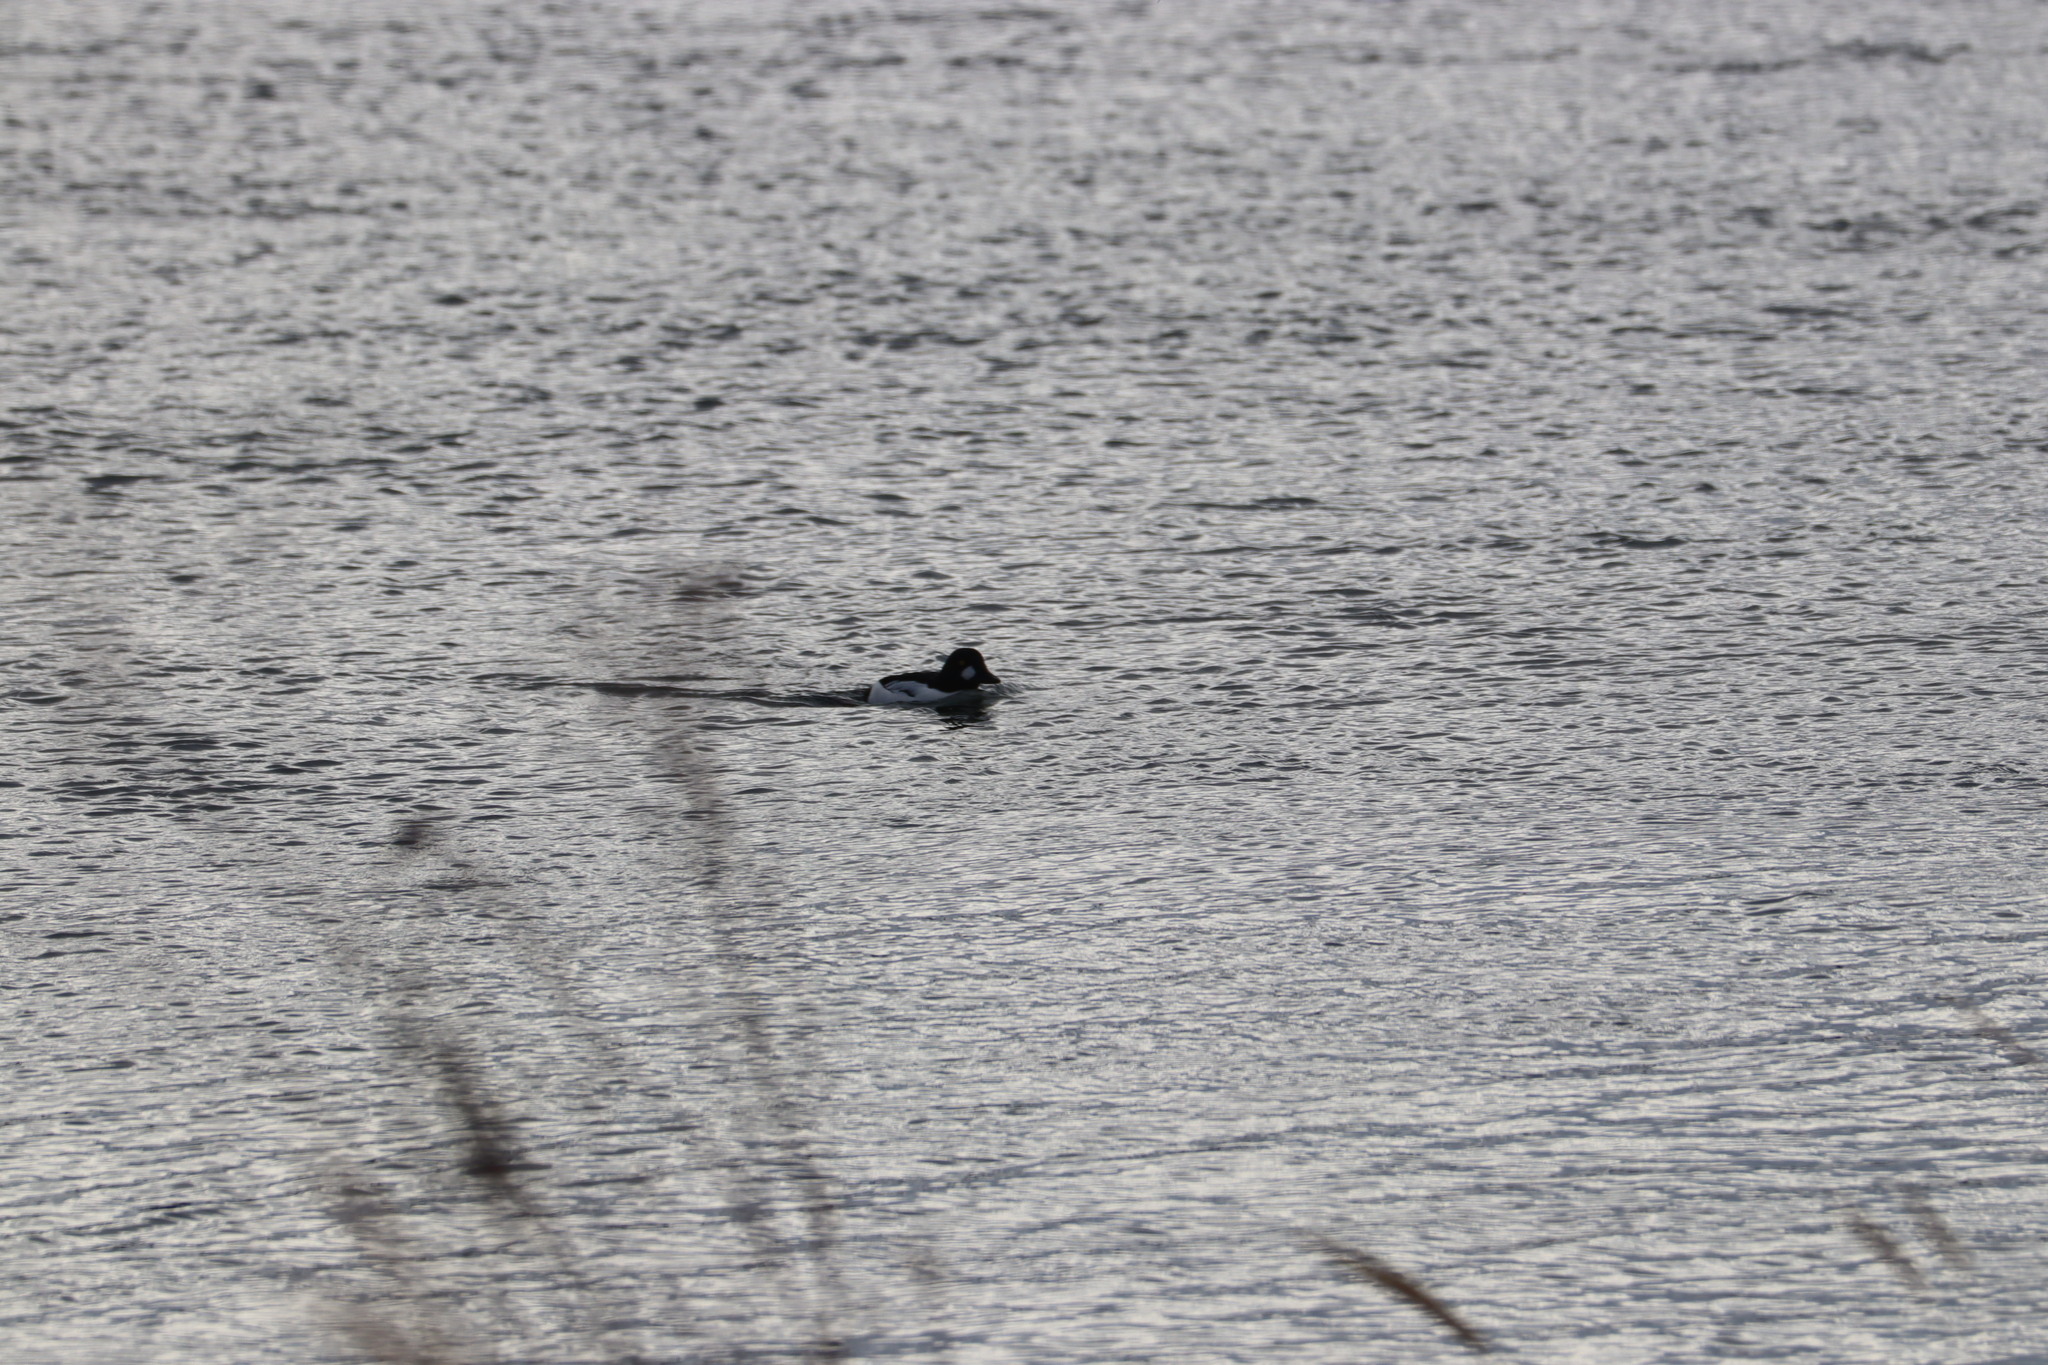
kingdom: Animalia
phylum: Chordata
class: Aves
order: Anseriformes
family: Anatidae
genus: Bucephala
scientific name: Bucephala clangula
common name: Common goldeneye
